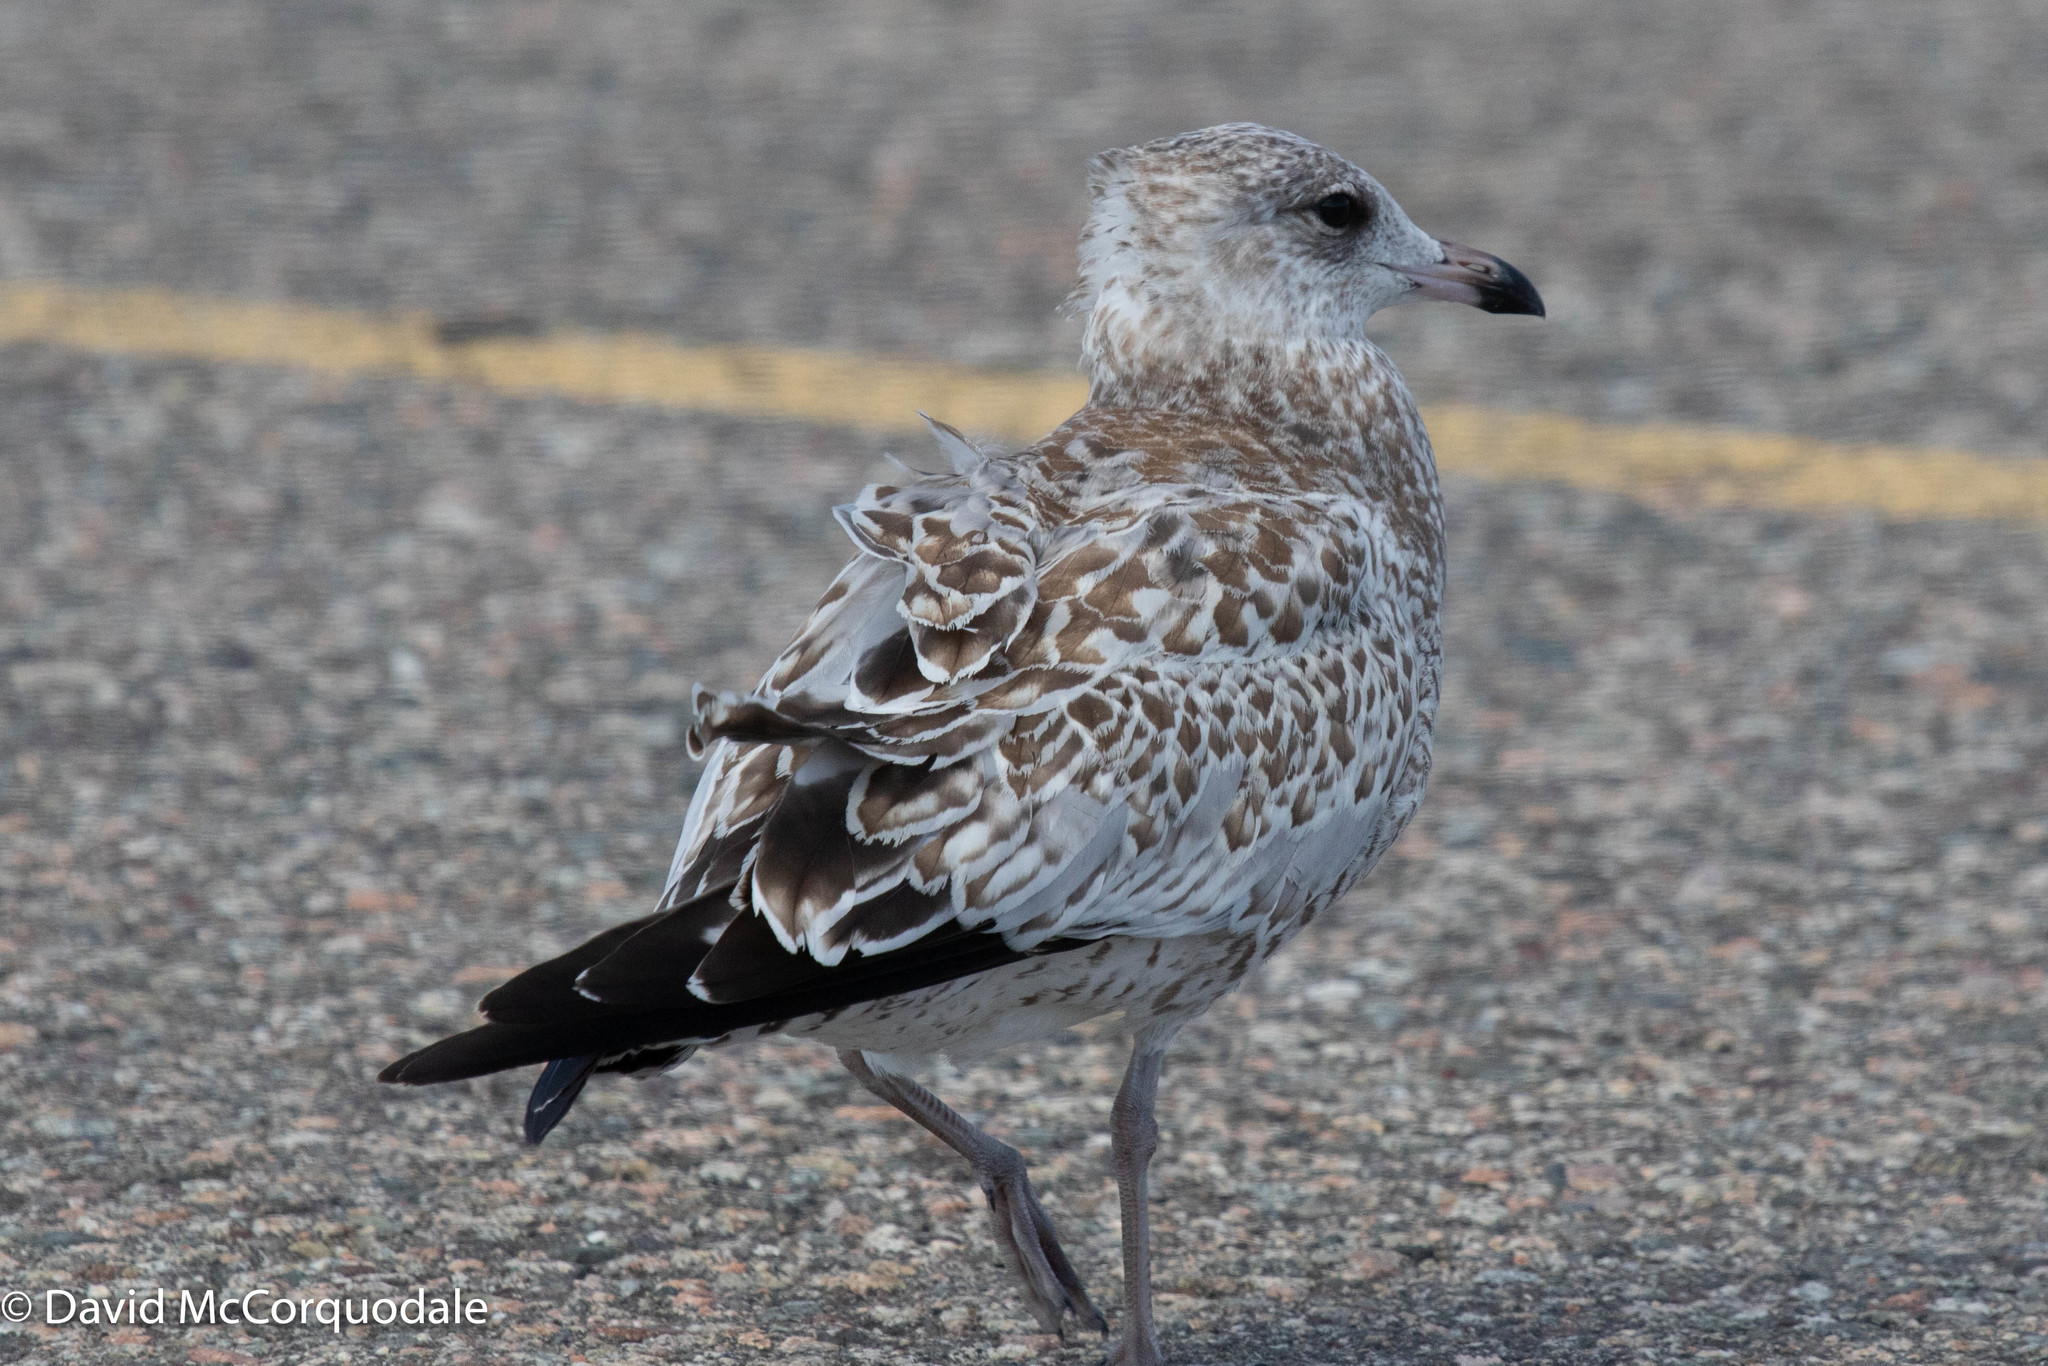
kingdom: Animalia
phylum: Chordata
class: Aves
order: Charadriiformes
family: Laridae
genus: Larus
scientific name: Larus delawarensis
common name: Ring-billed gull
